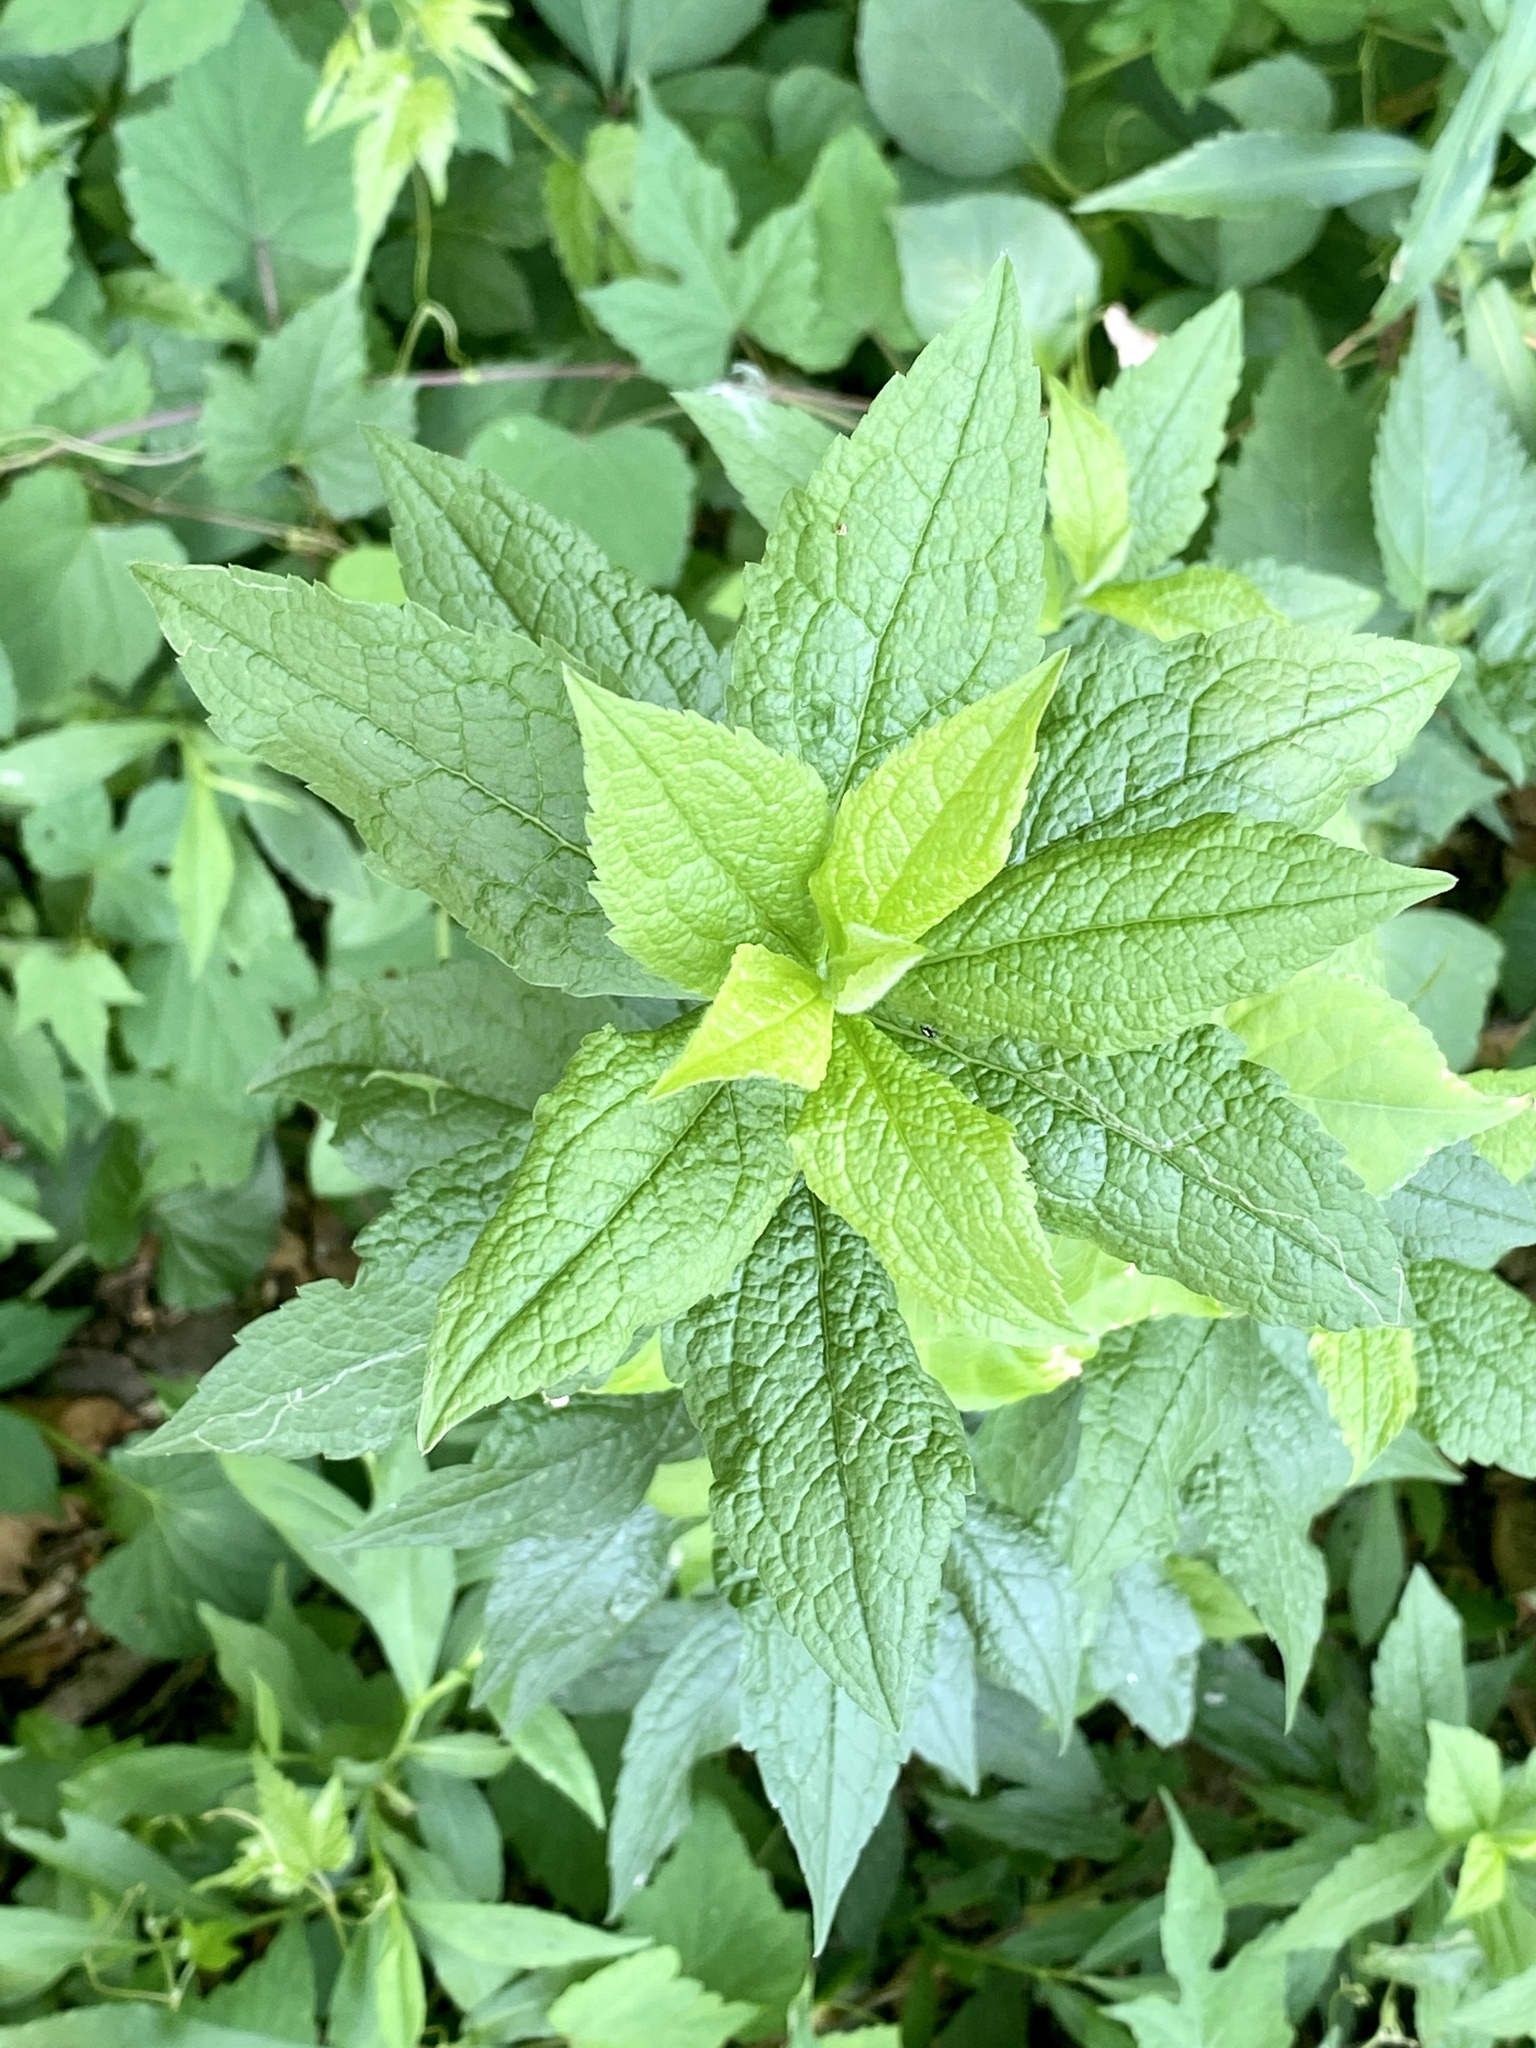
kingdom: Plantae
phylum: Tracheophyta
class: Magnoliopsida
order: Asterales
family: Asteraceae
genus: Solidago
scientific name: Solidago rugosa
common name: Rough-stemmed goldenrod
